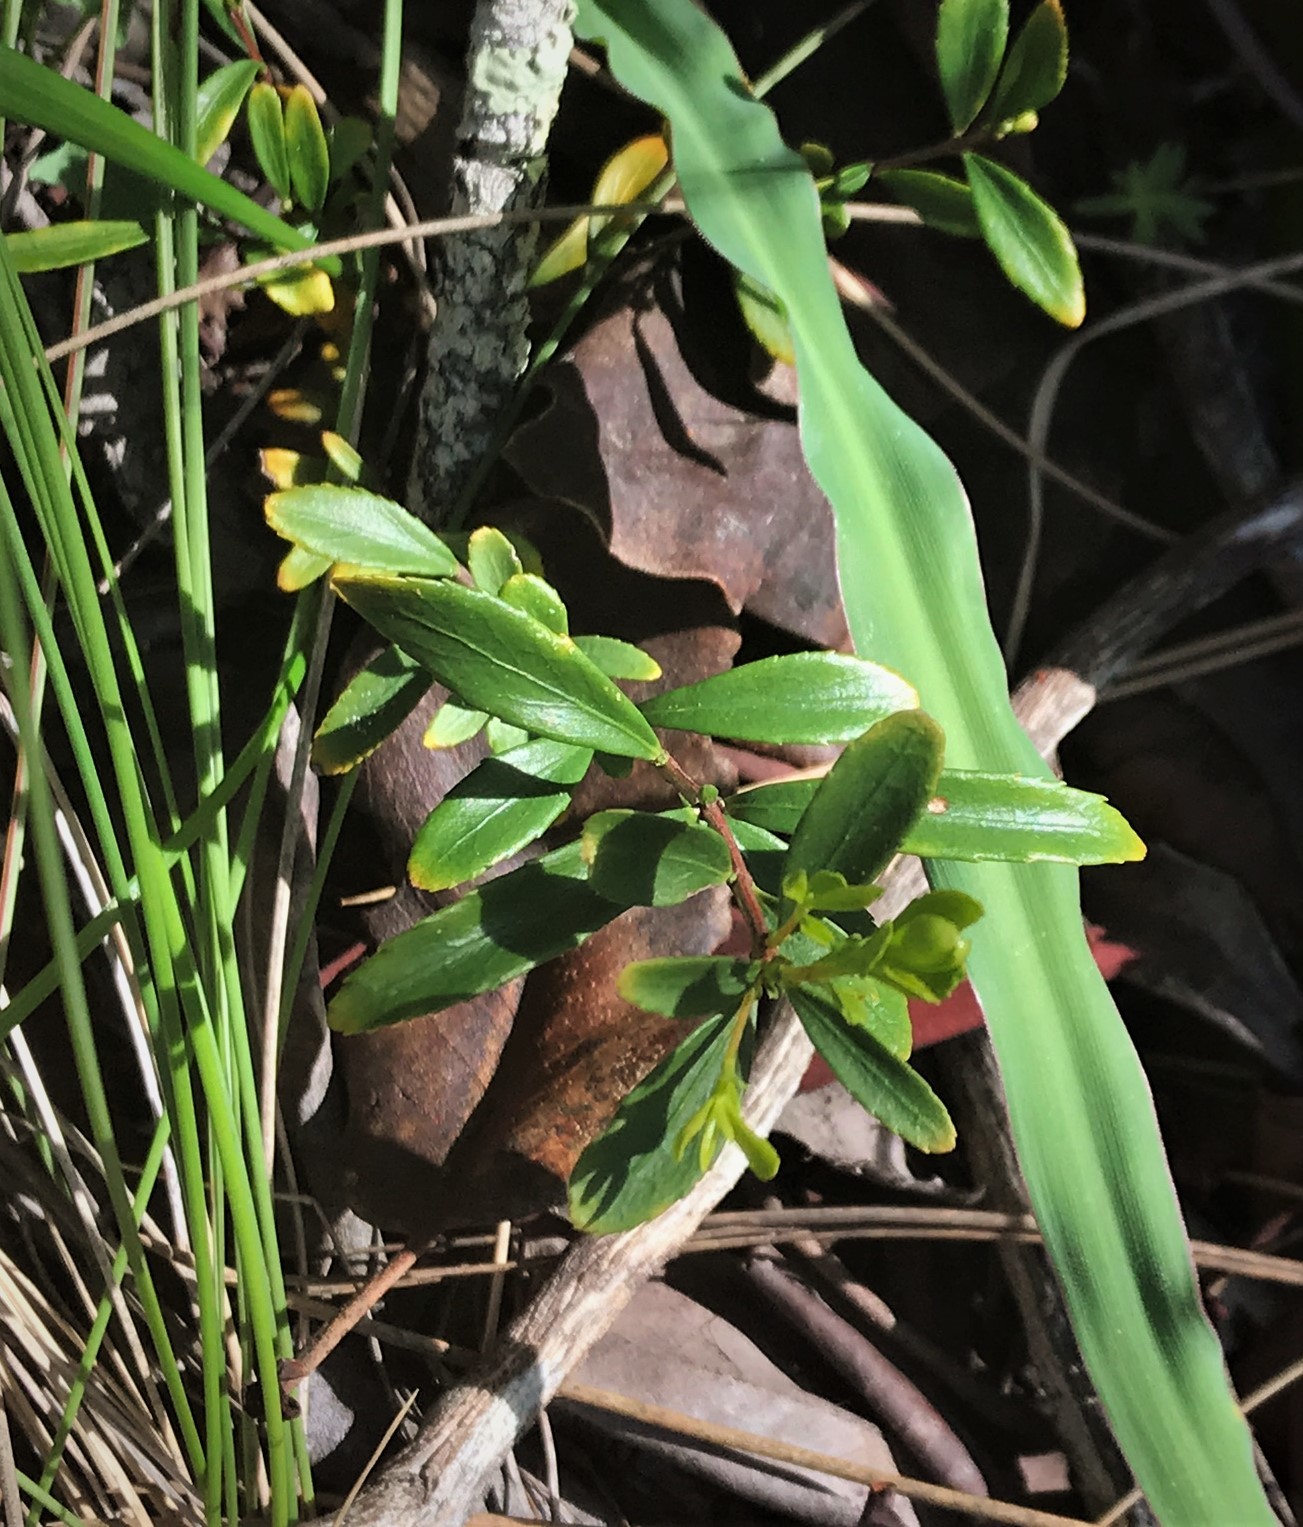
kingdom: Plantae
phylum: Tracheophyta
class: Magnoliopsida
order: Celastrales
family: Celastraceae
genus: Paxistima
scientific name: Paxistima myrsinites
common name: Mountain-lover
